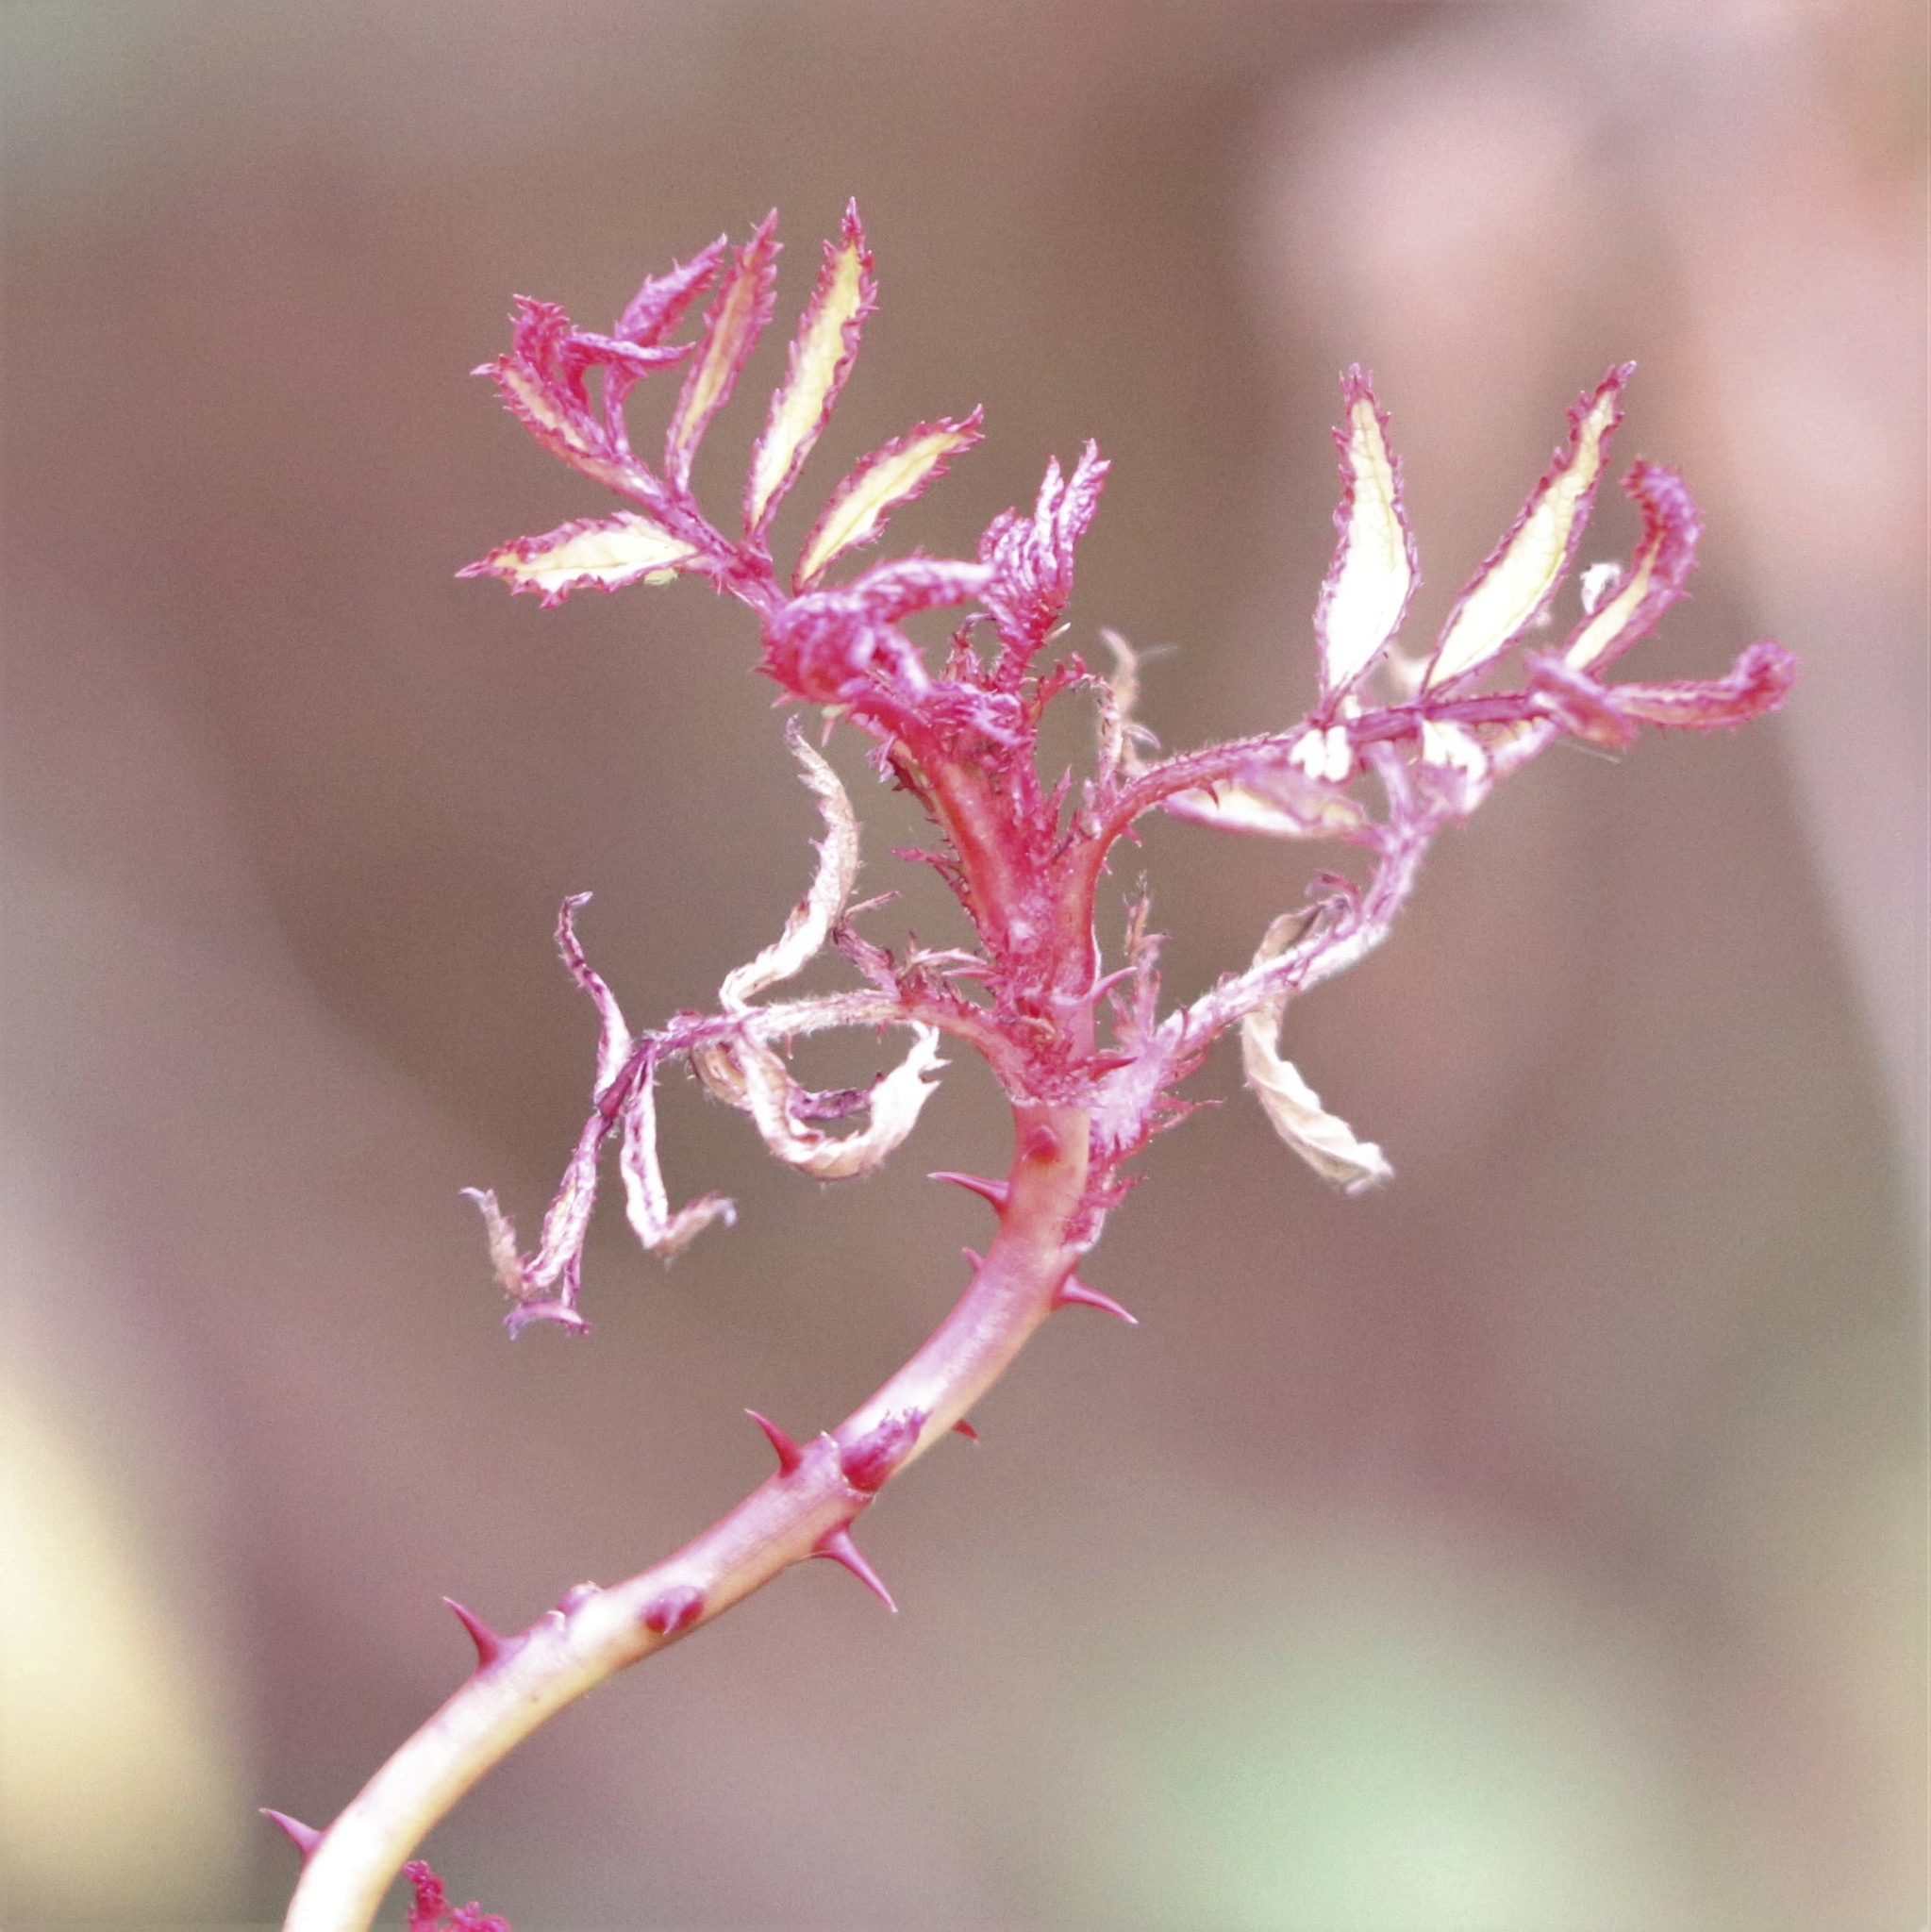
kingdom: Viruses
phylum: Negarnaviricota
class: Ellioviricetes
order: Bunyavirales
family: Fimoviridae
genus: Emaravirus
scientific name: Emaravirus rosae
